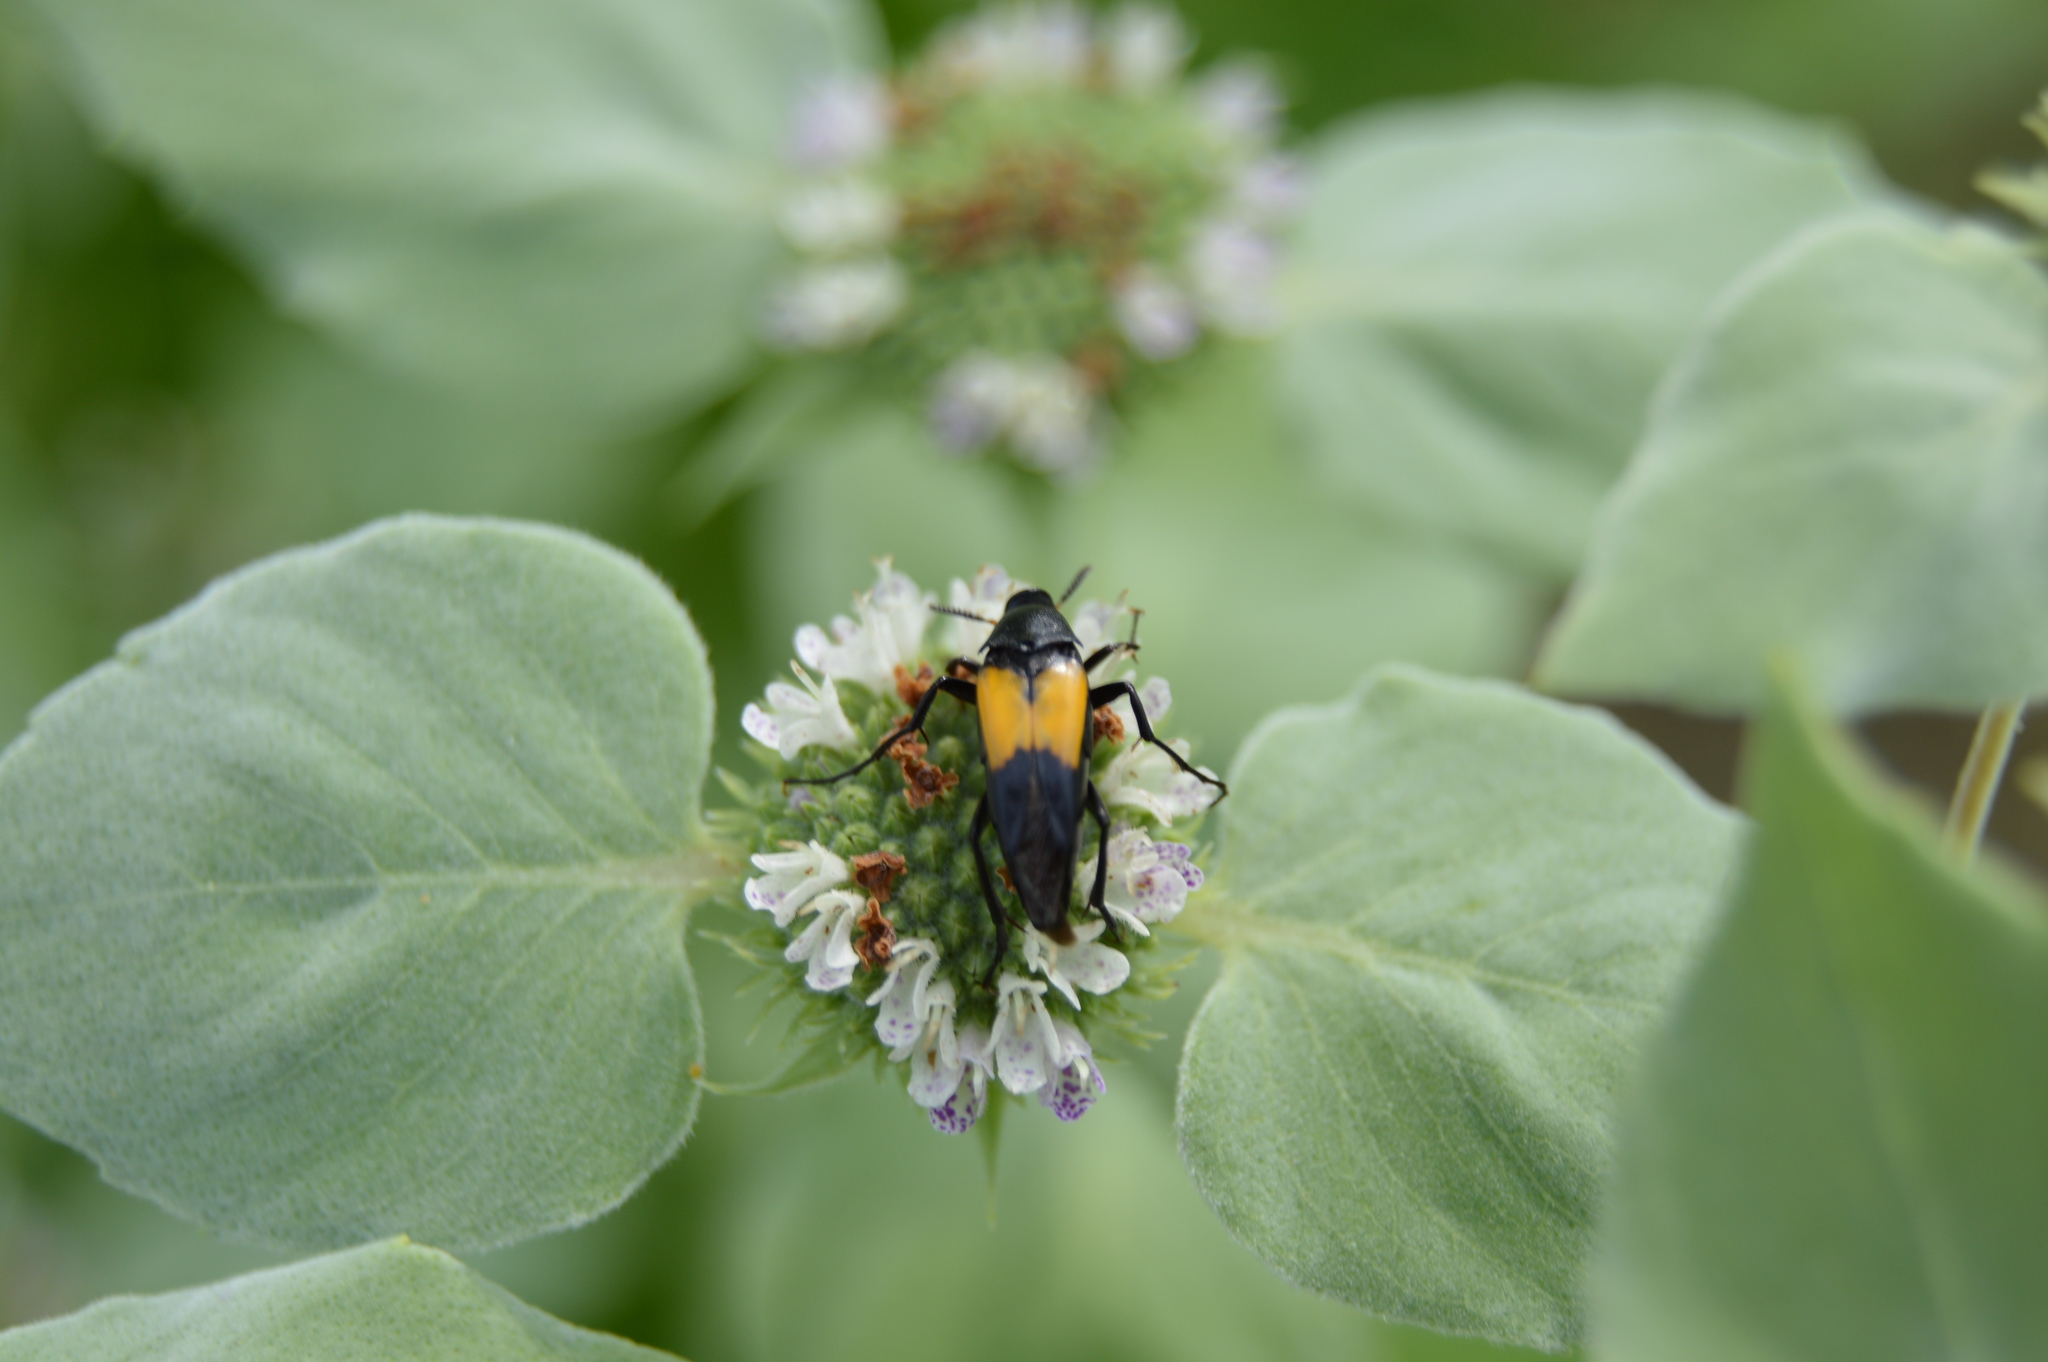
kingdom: Animalia
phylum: Arthropoda
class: Insecta
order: Coleoptera
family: Ripiphoridae
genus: Macrosiagon
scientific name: Macrosiagon dimidiata
